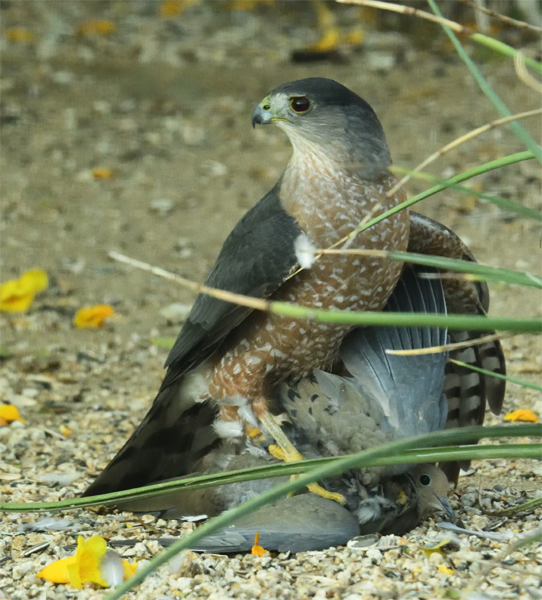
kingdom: Animalia
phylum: Chordata
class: Aves
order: Accipitriformes
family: Accipitridae
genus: Accipiter
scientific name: Accipiter cooperii
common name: Cooper's hawk
